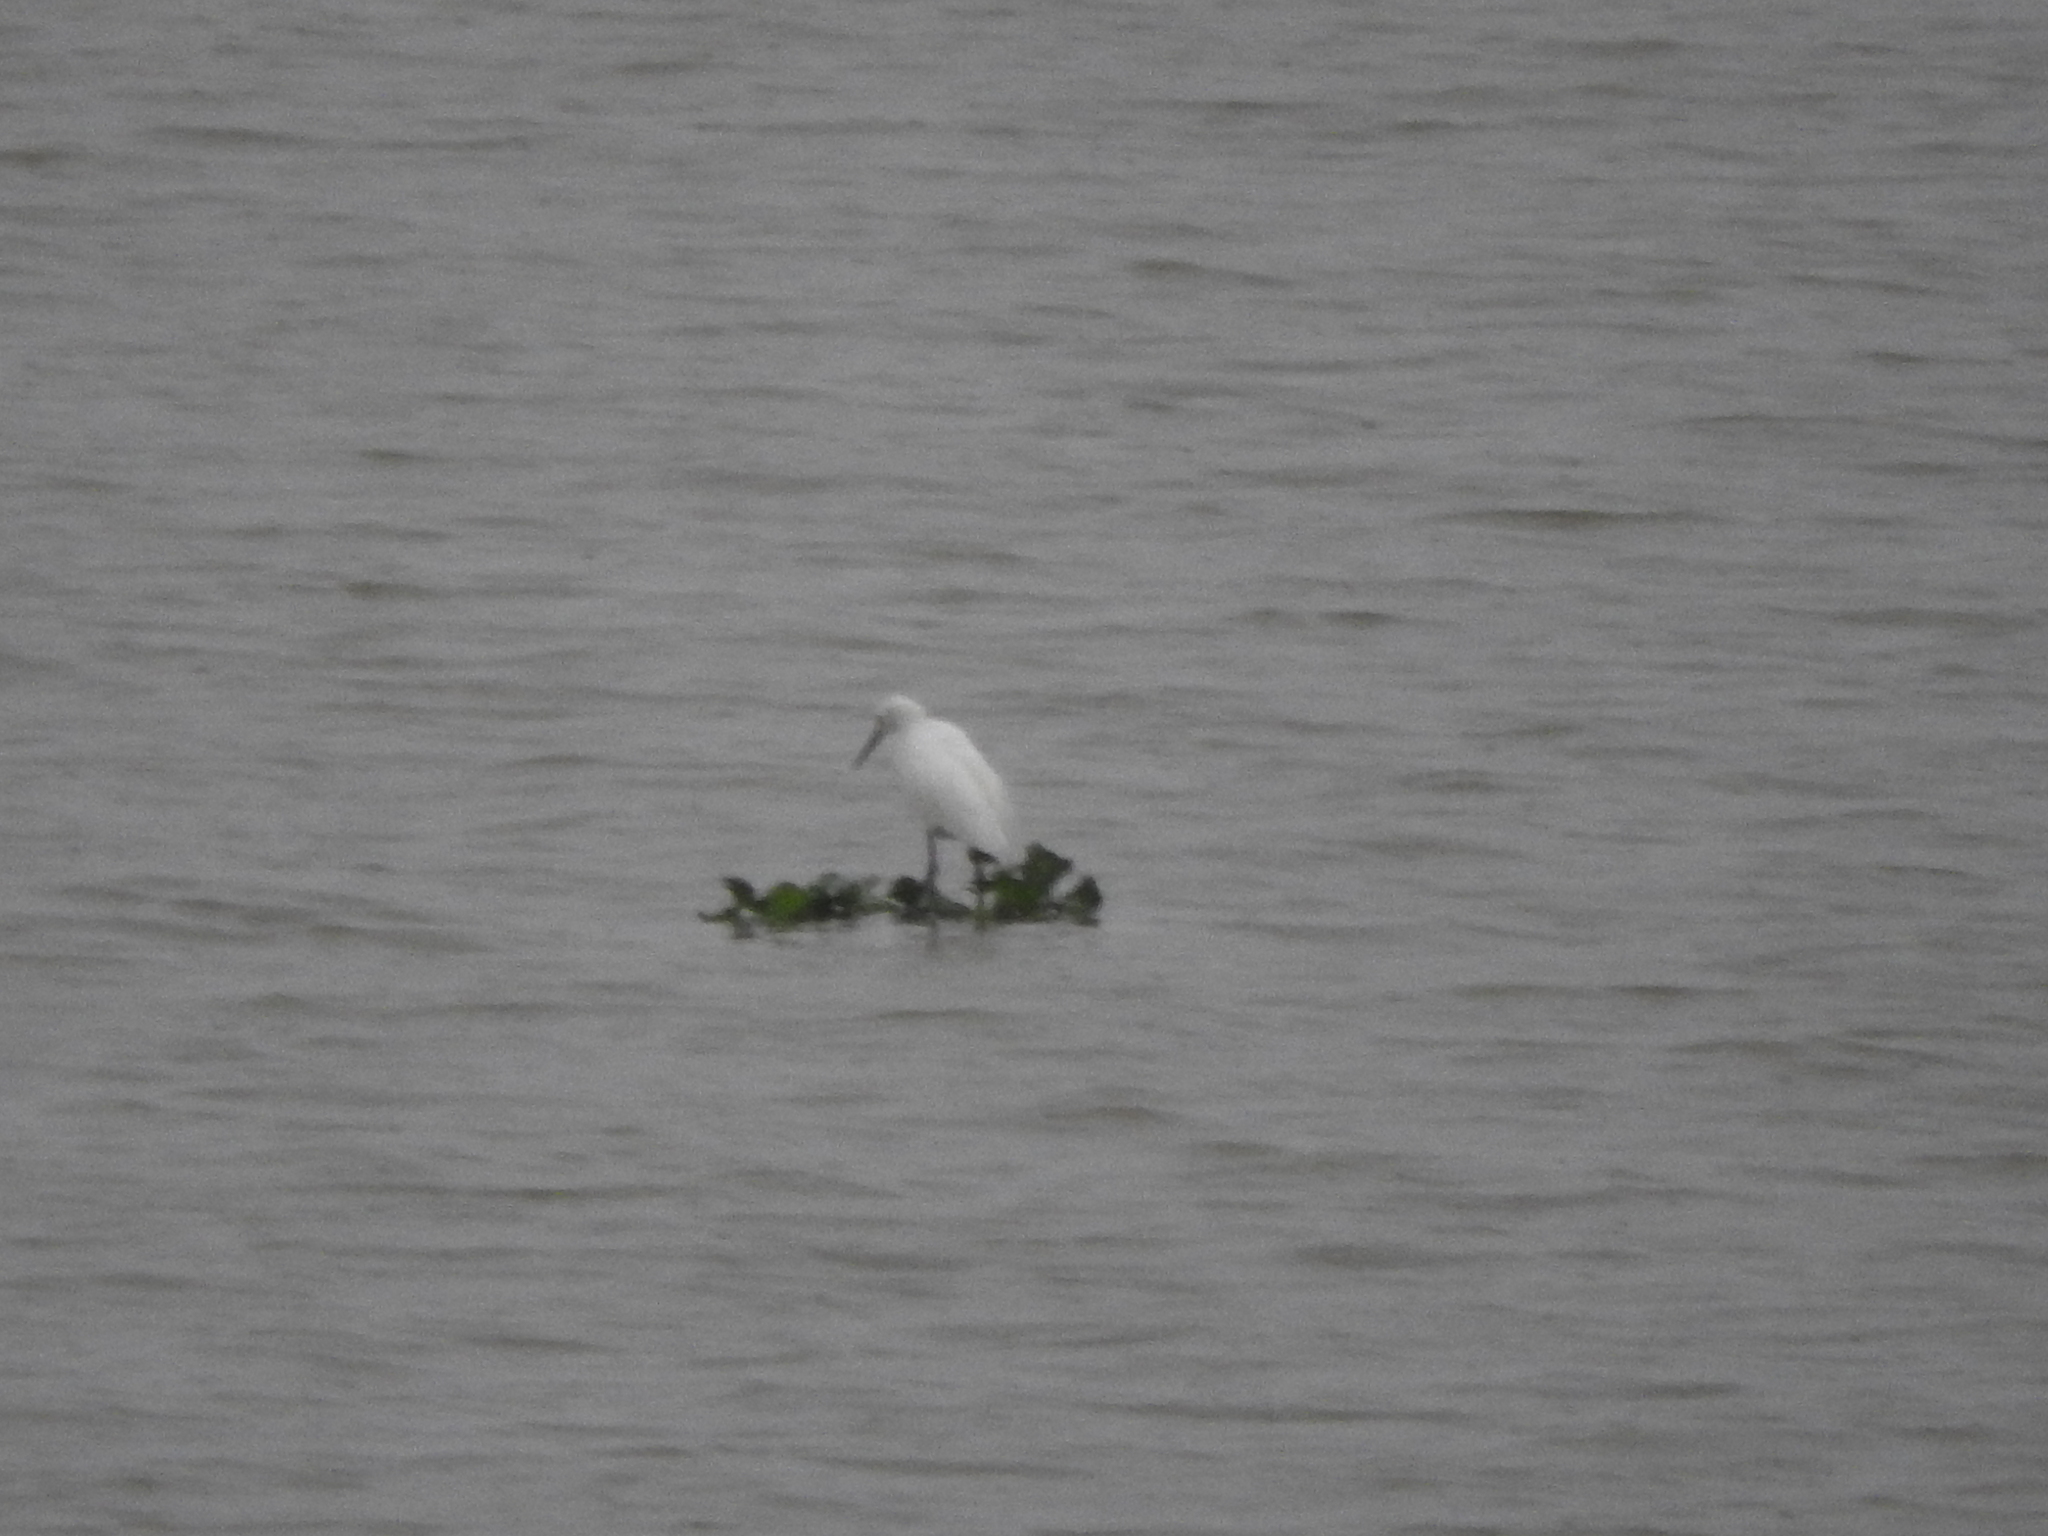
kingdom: Animalia
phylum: Chordata
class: Aves
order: Pelecaniformes
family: Ardeidae
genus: Egretta
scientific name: Egretta thula
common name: Snowy egret
